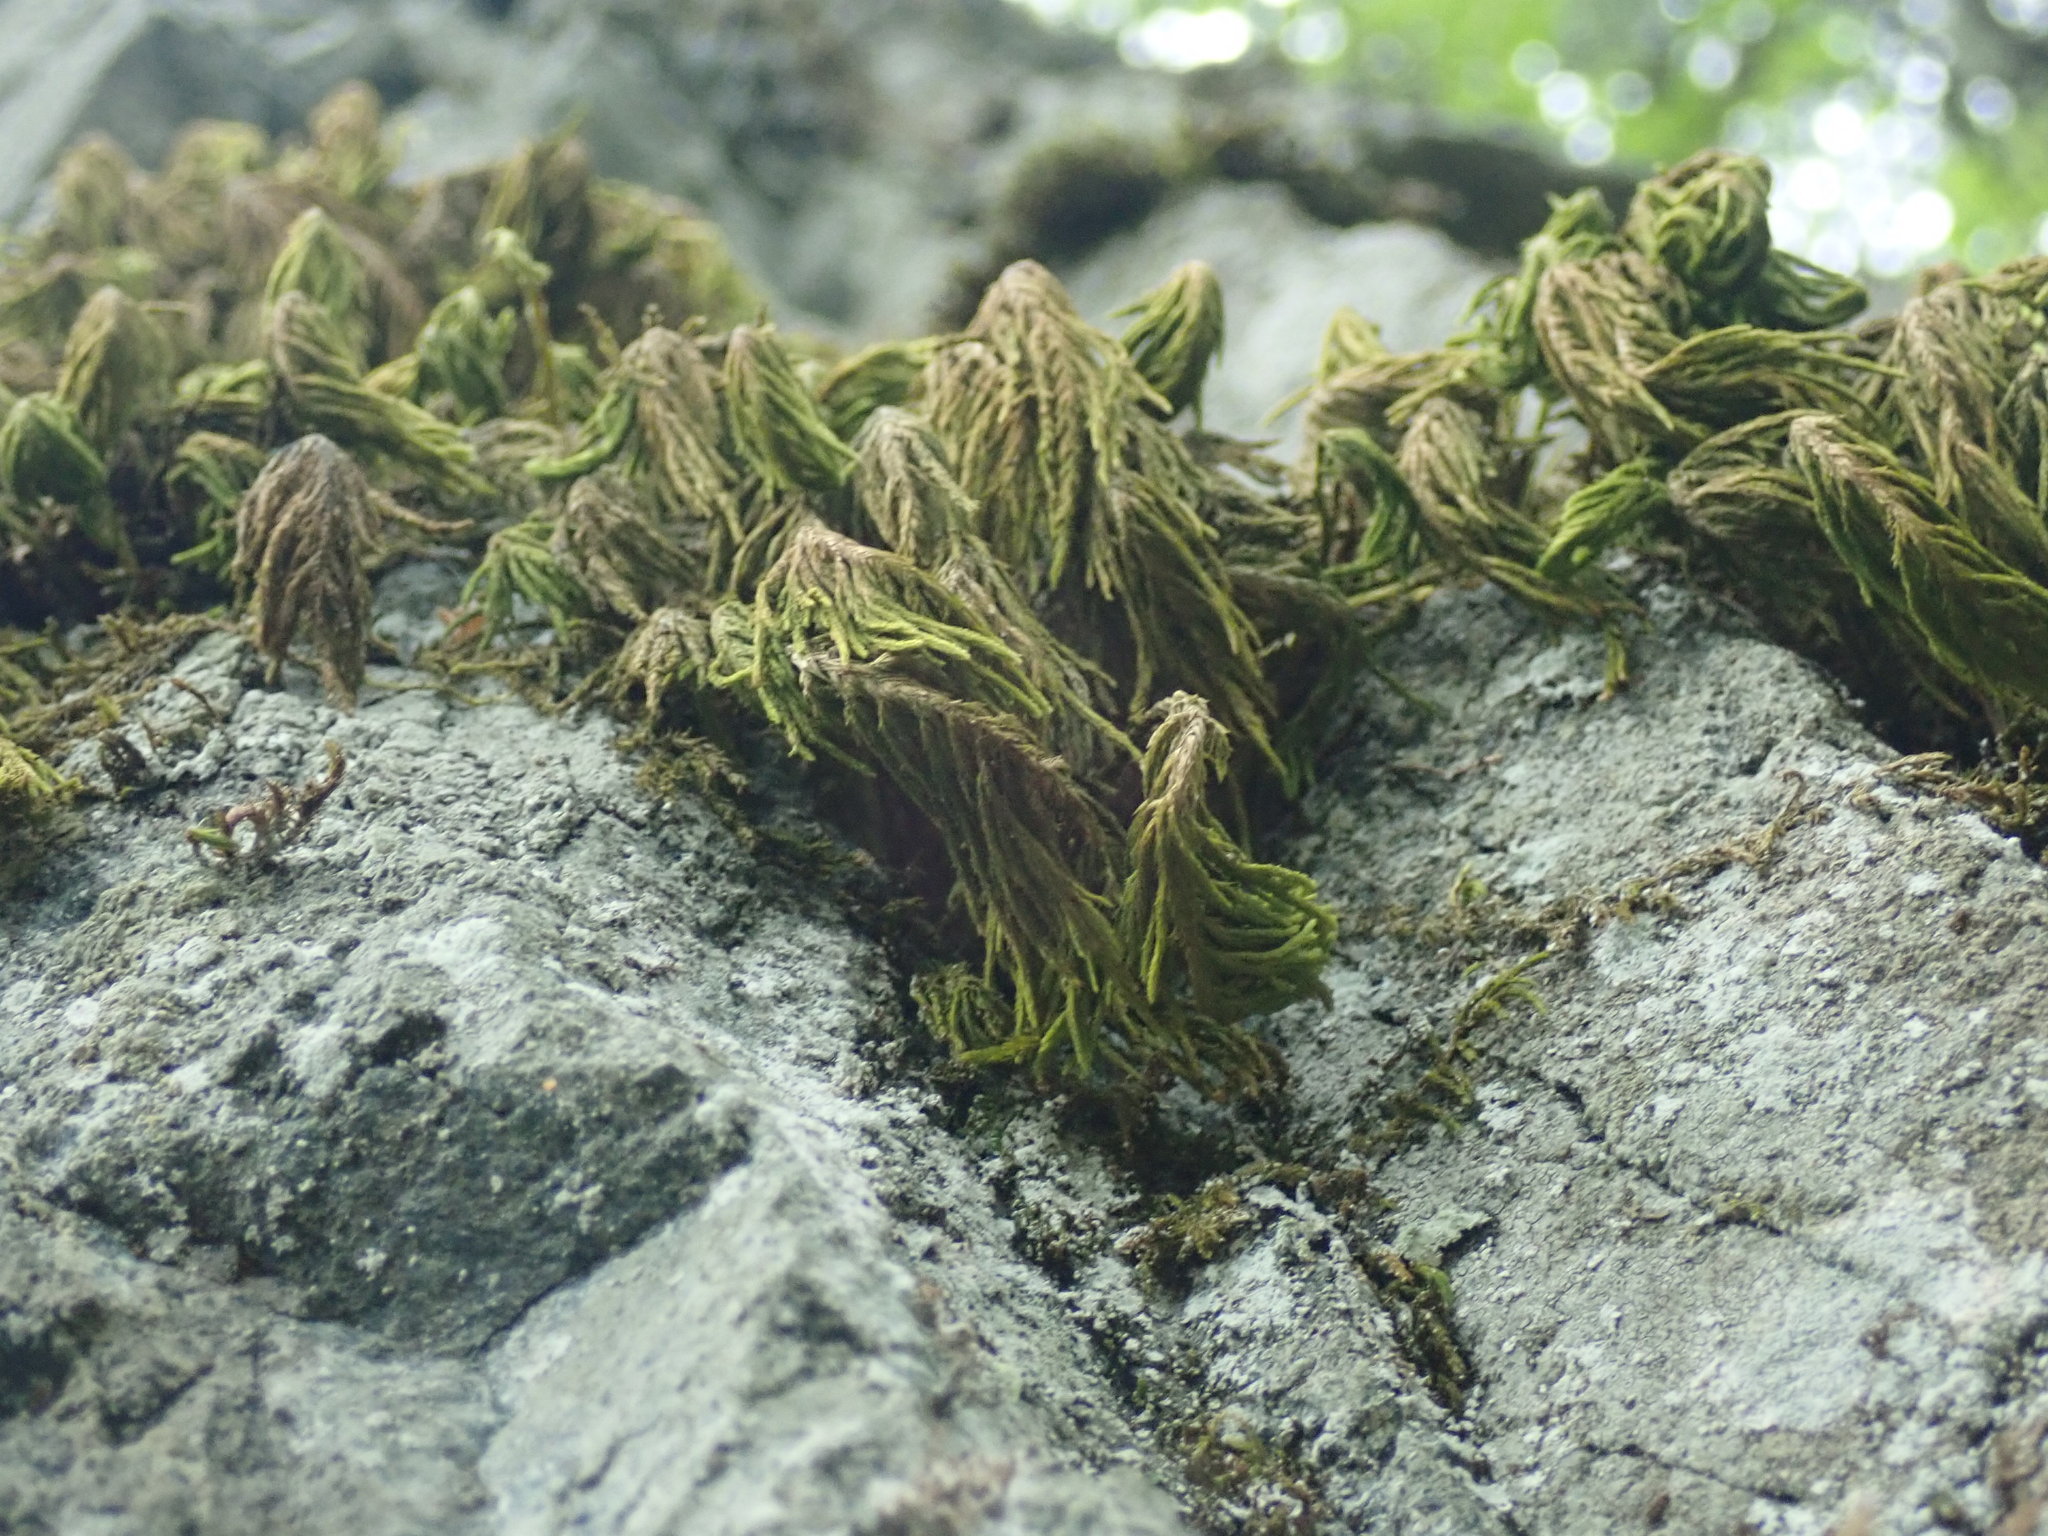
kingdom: Plantae
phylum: Bryophyta
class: Bryopsida
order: Hypnales
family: Cryphaeaceae
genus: Dendroalsia
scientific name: Dendroalsia abietina
